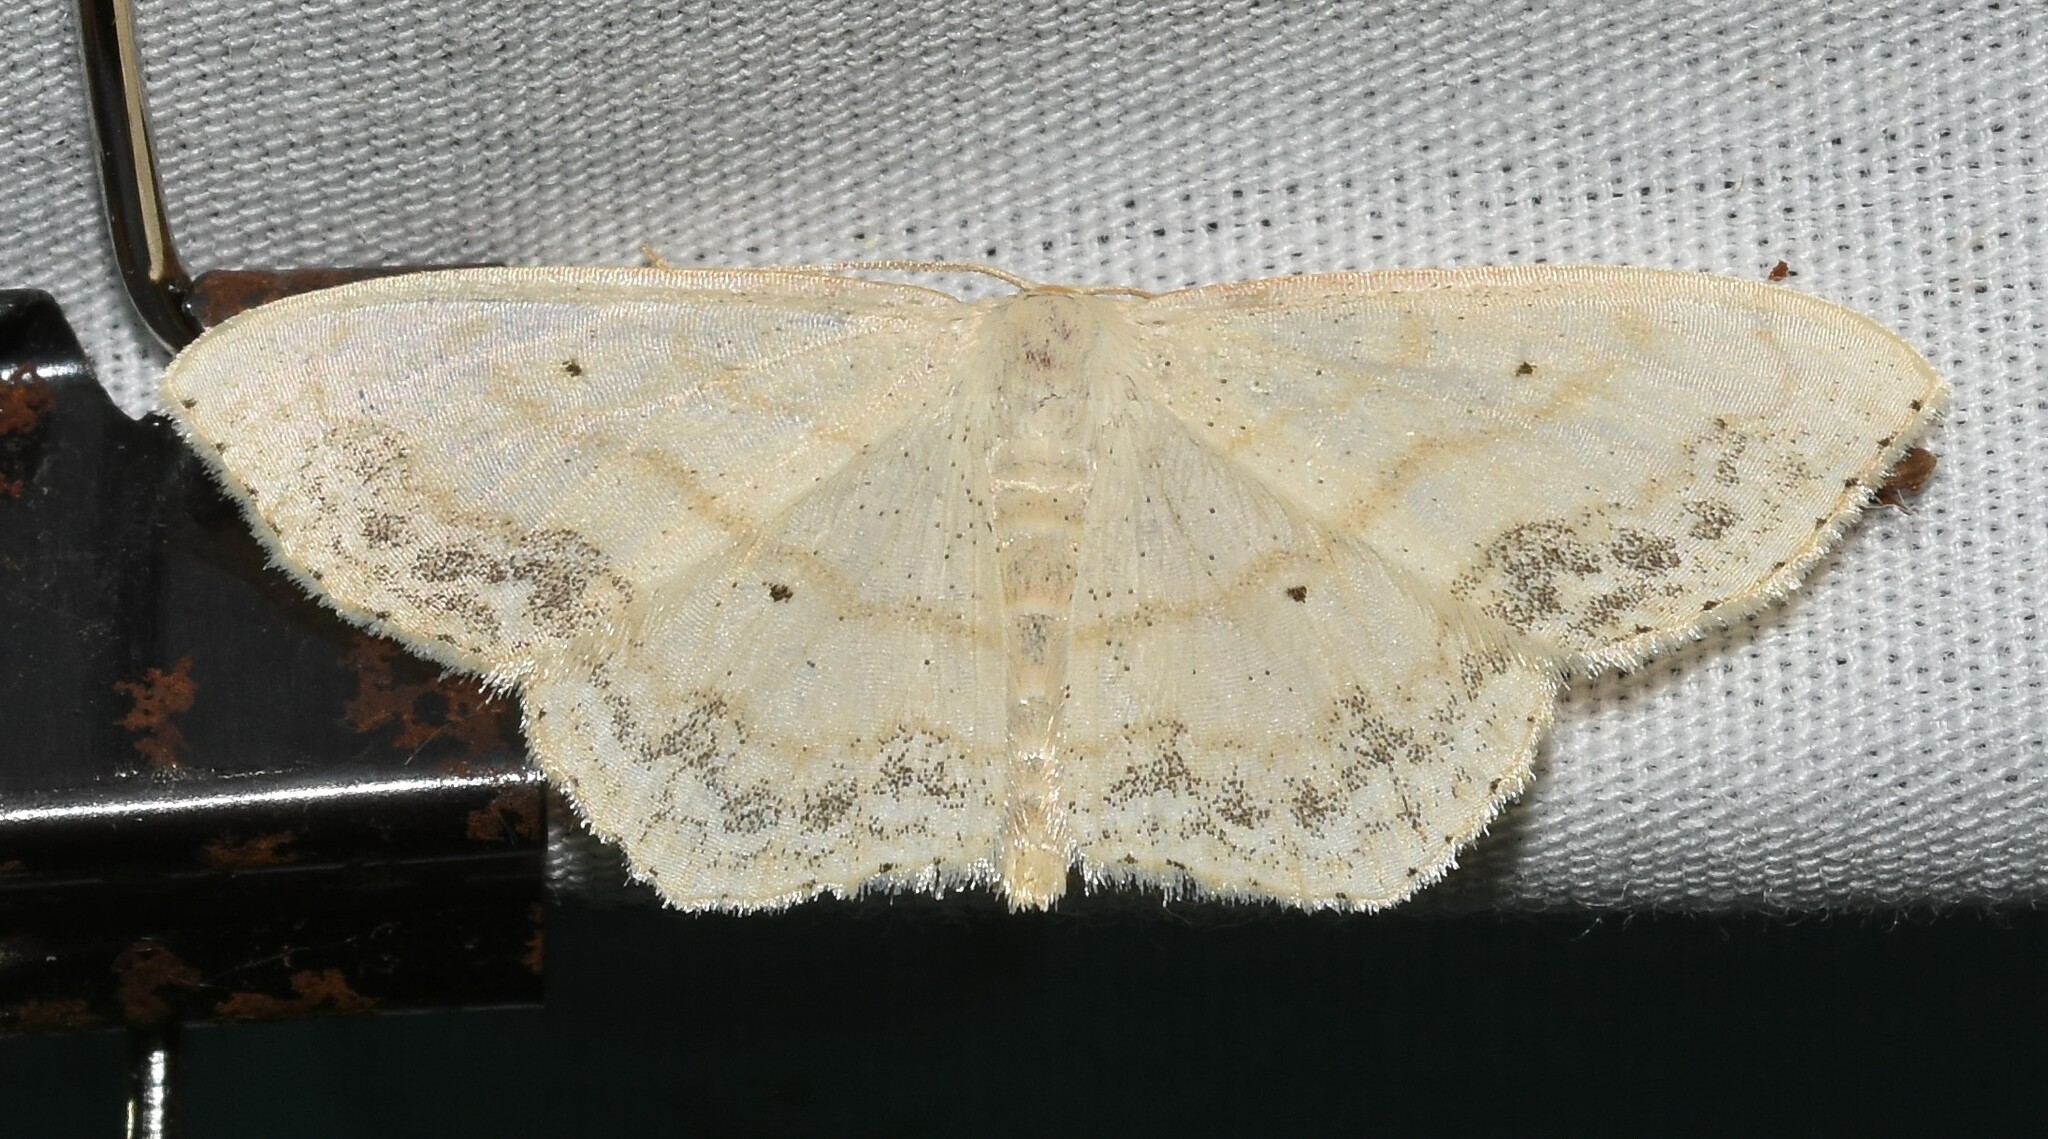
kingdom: Animalia
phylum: Arthropoda
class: Insecta
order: Lepidoptera
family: Geometridae
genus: Scopula
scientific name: Scopula limboundata
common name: Large lace border
